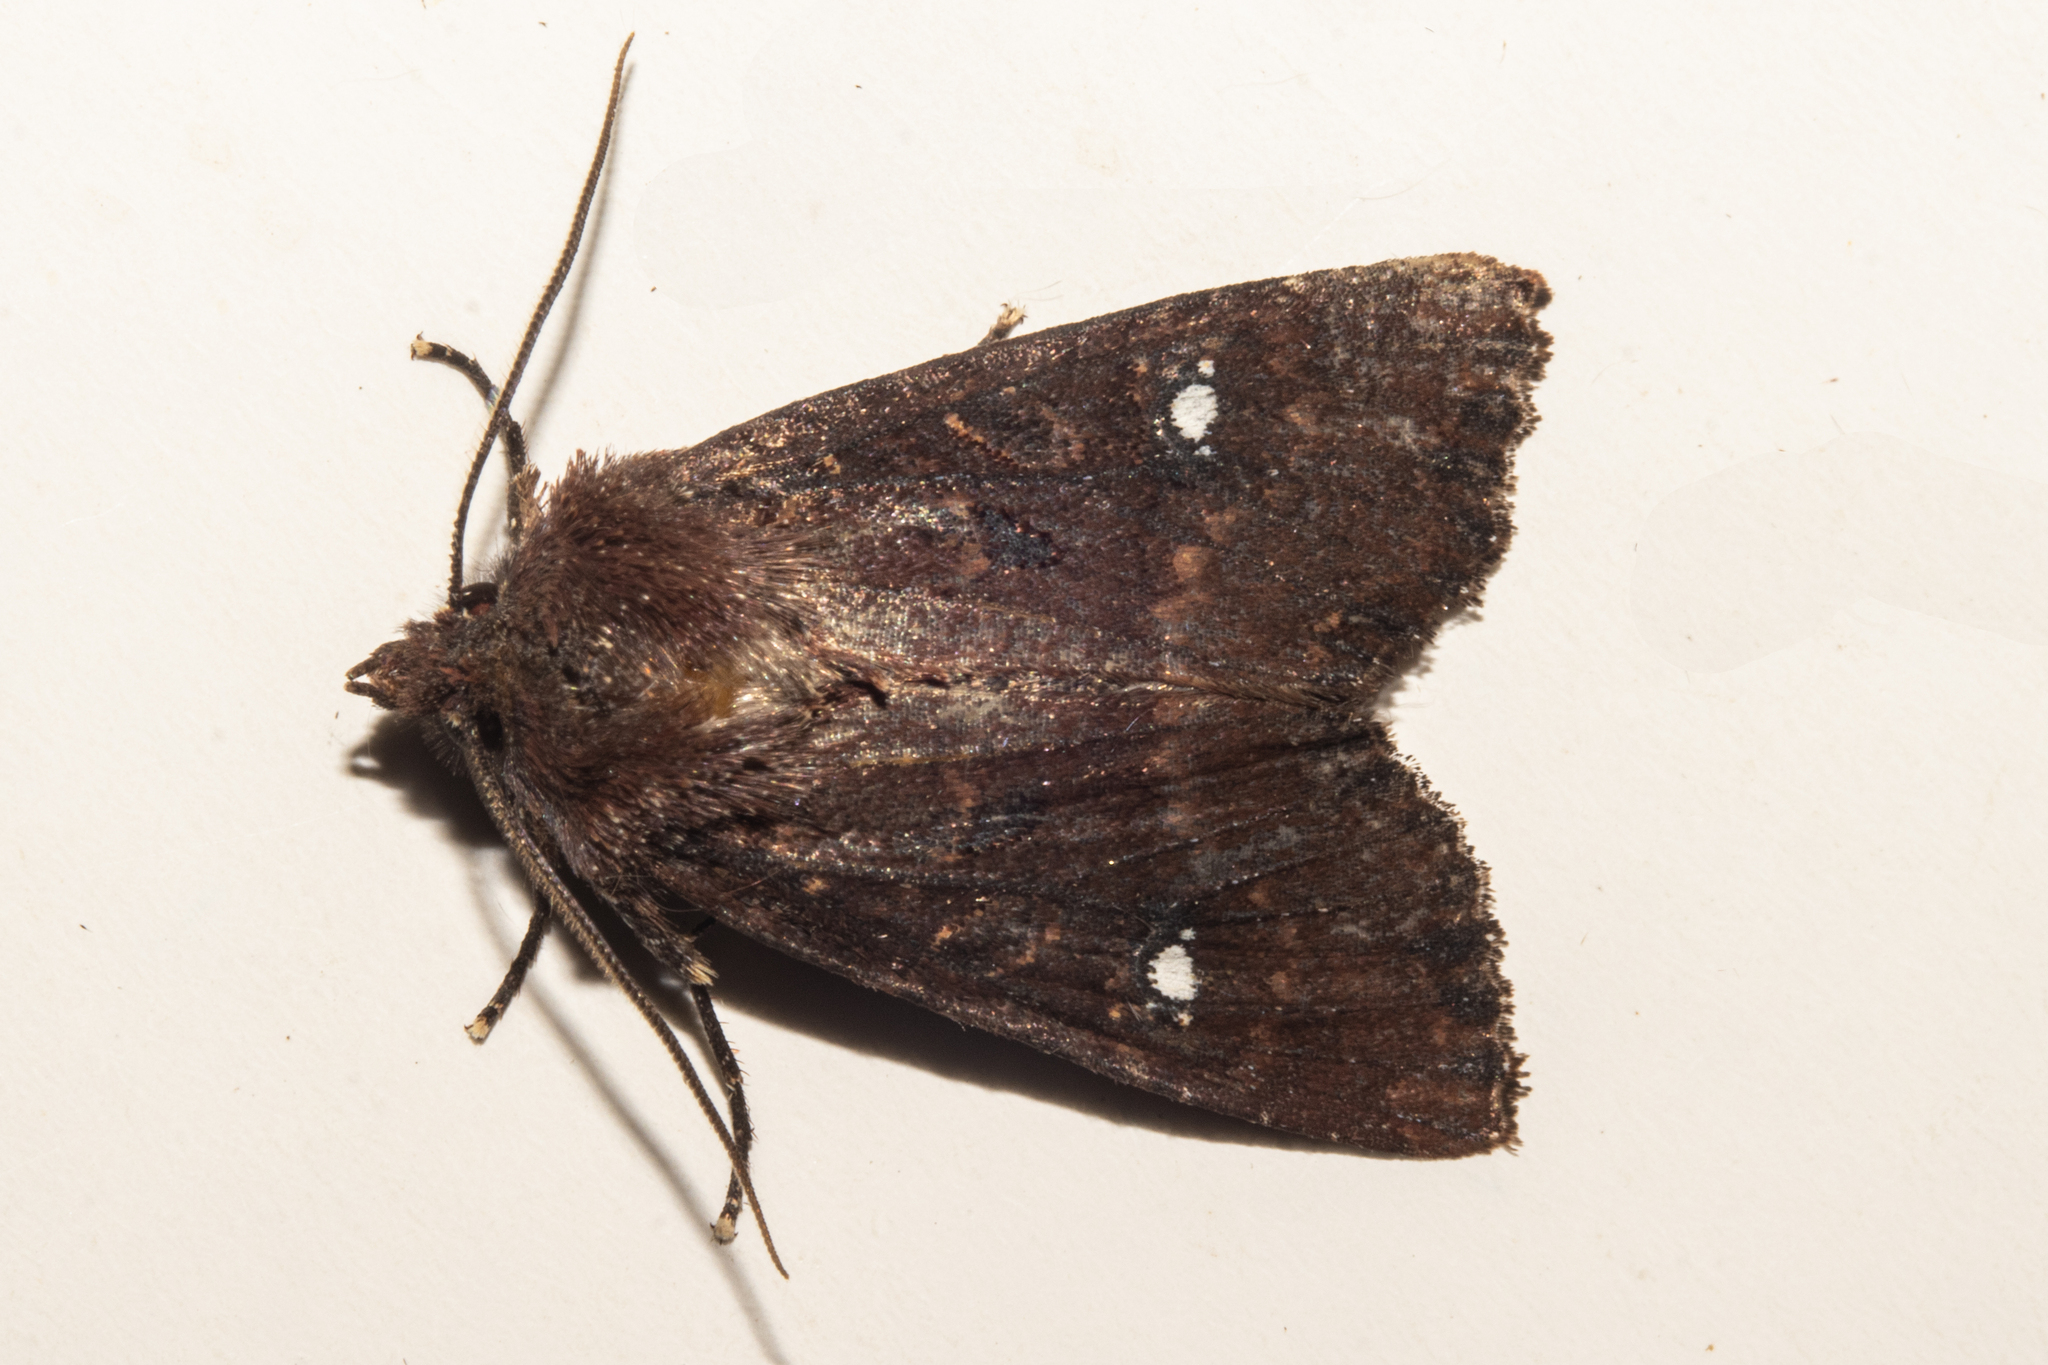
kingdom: Animalia
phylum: Arthropoda
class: Insecta
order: Lepidoptera
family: Noctuidae
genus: Meterana
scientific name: Meterana vitiosa
